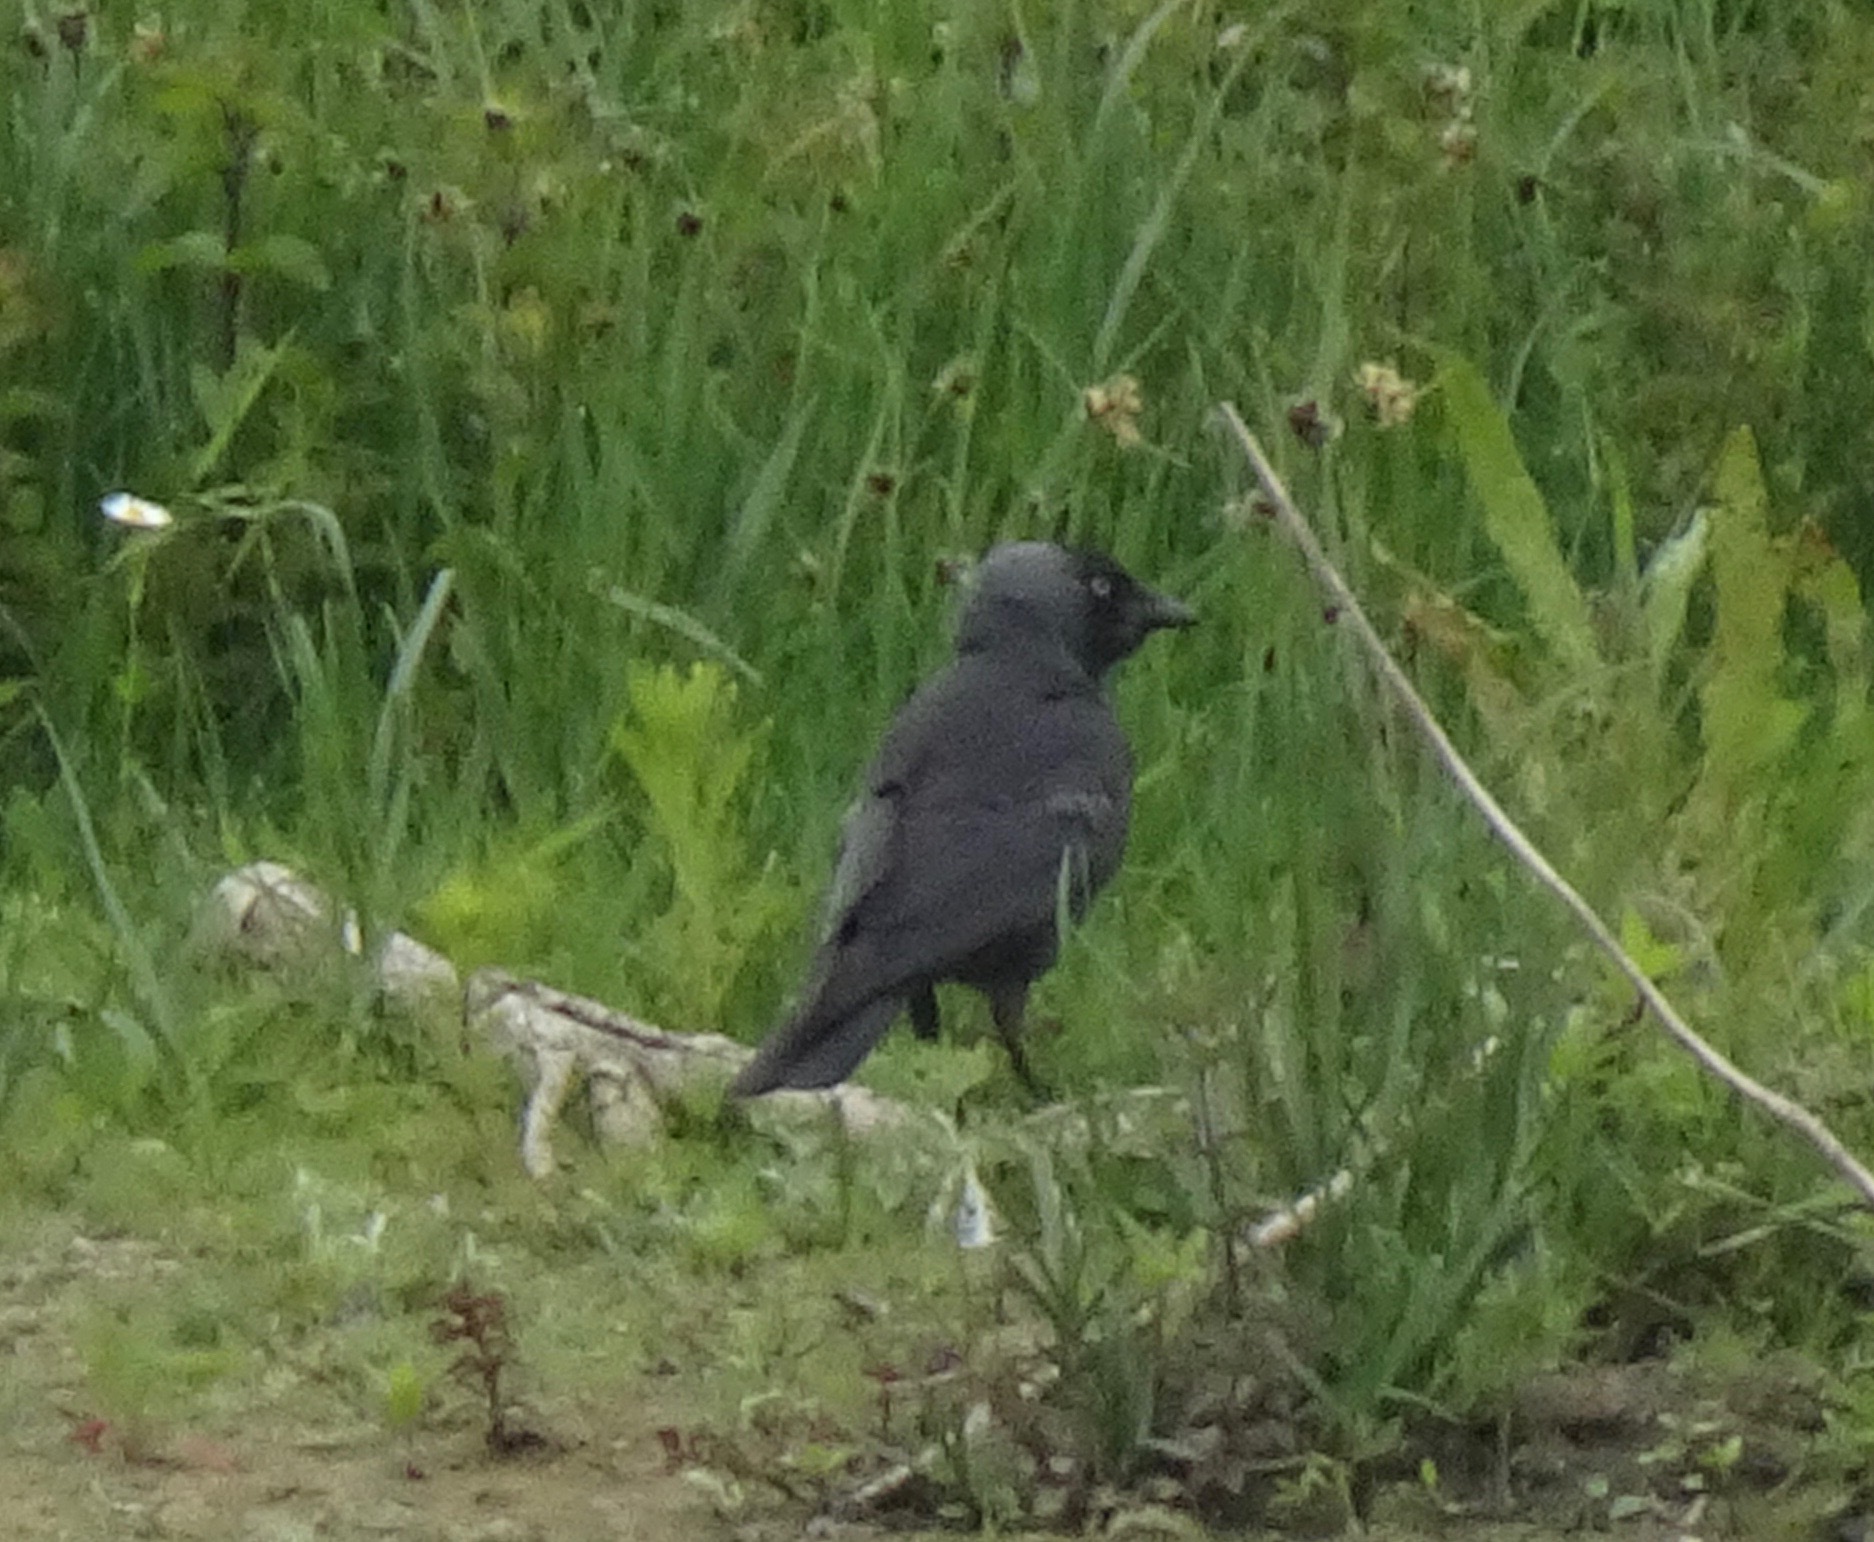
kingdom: Animalia
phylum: Chordata
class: Aves
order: Passeriformes
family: Corvidae
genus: Coloeus
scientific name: Coloeus monedula
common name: Western jackdaw
